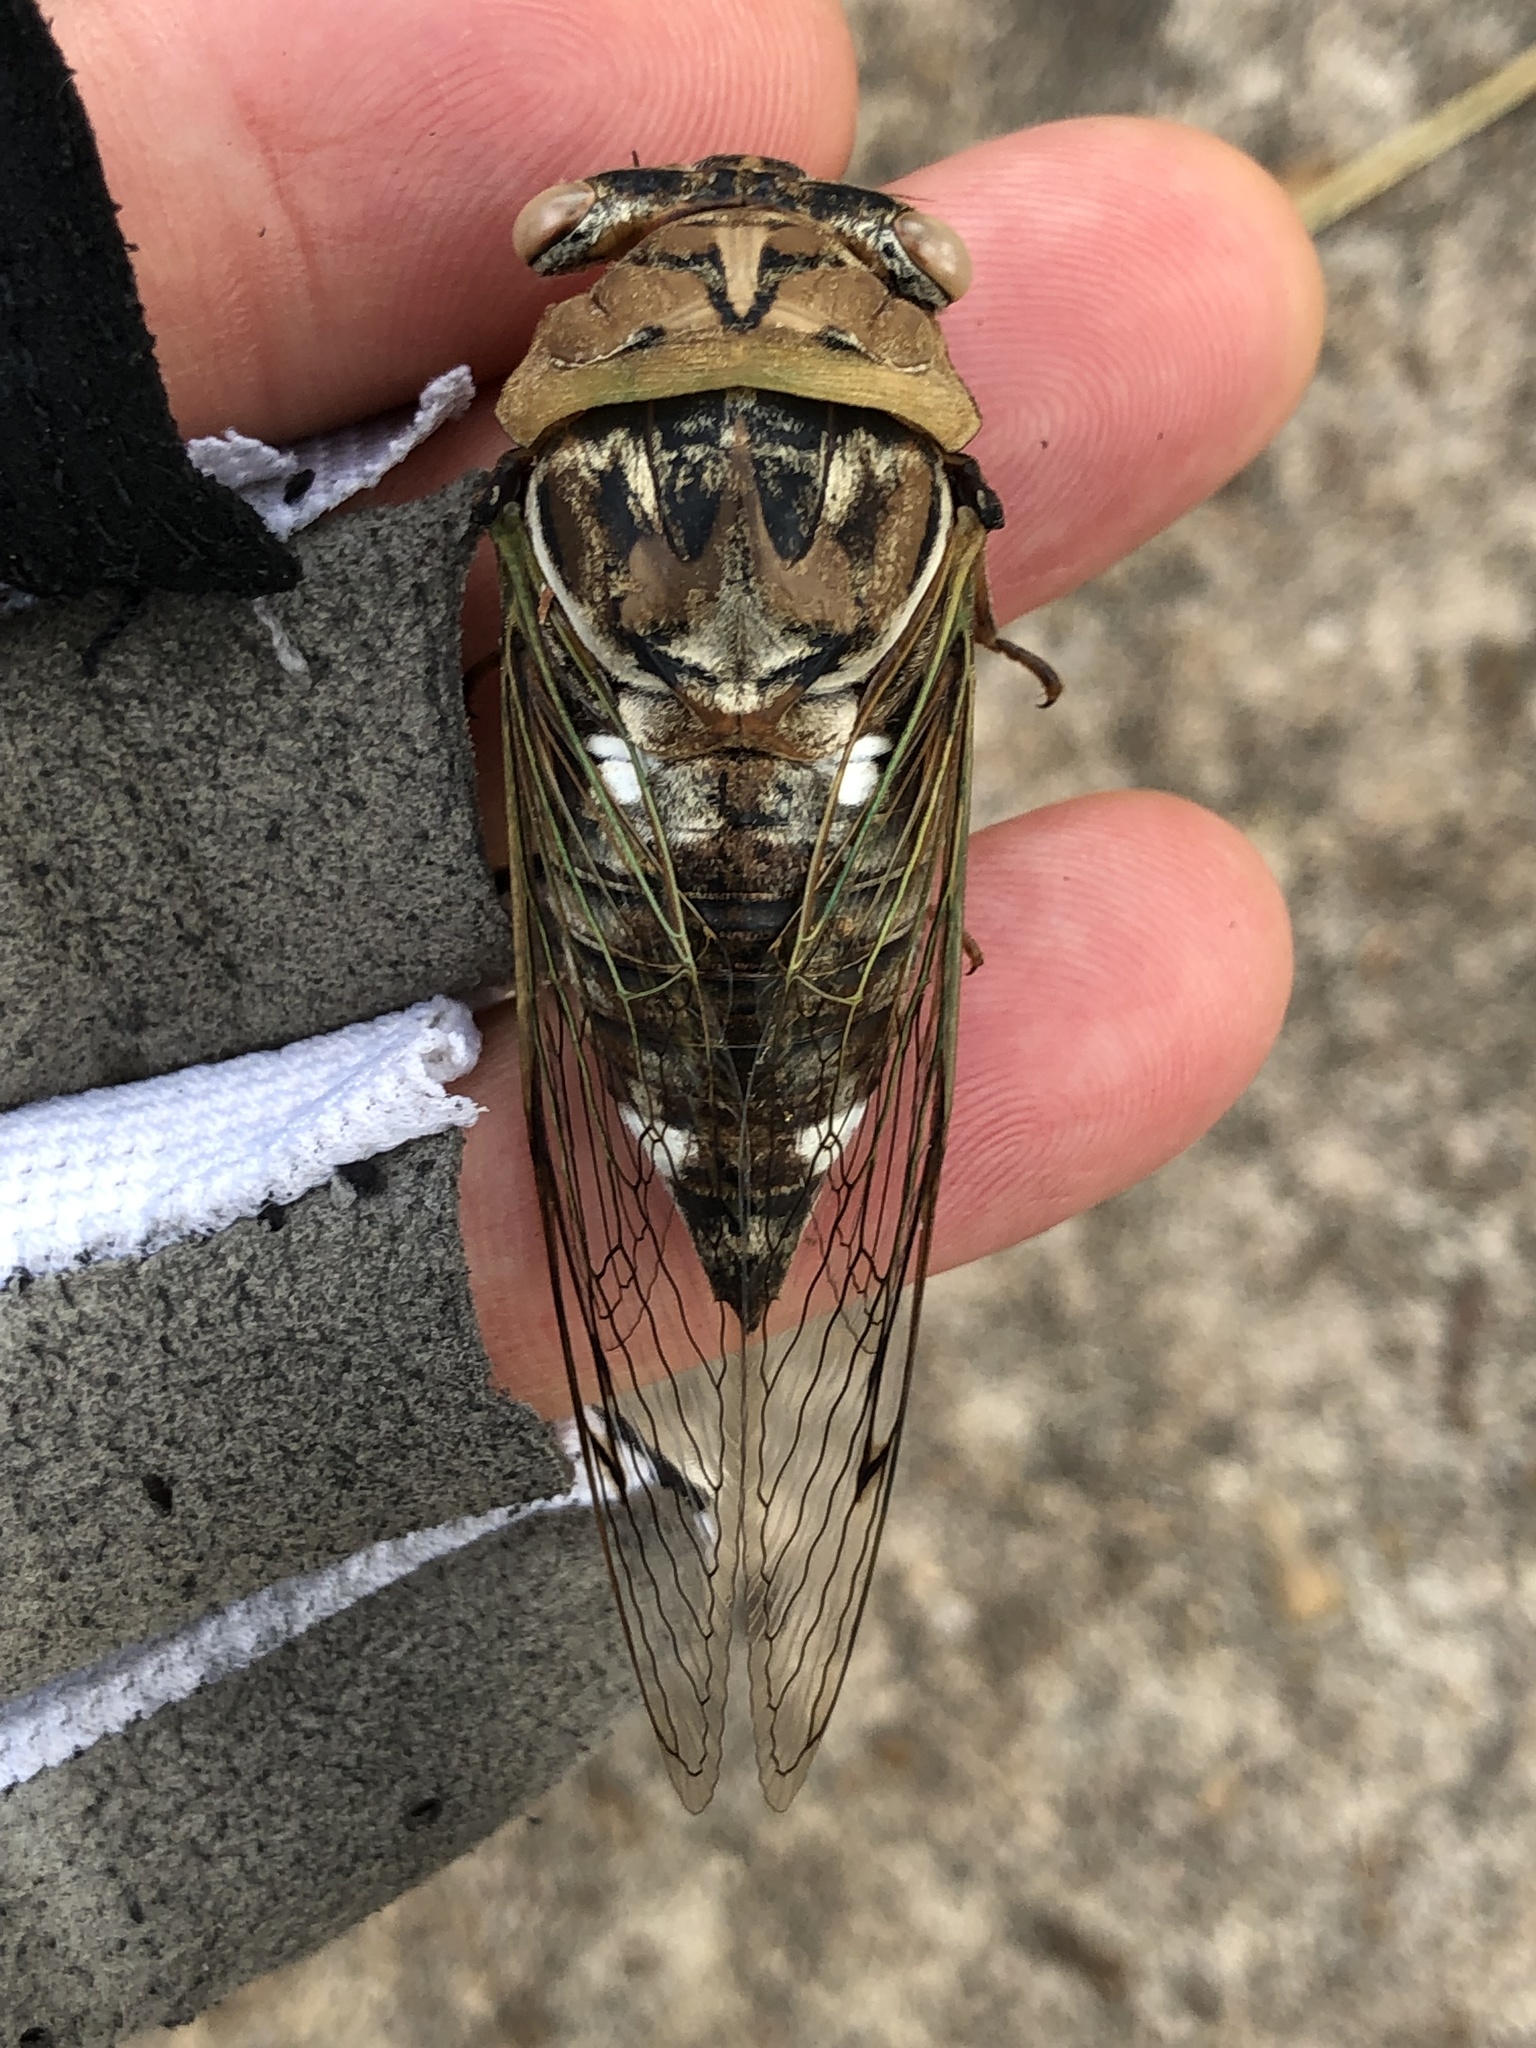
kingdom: Animalia
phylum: Arthropoda
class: Insecta
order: Hemiptera
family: Cicadidae
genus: Megatibicen
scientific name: Megatibicen resh
